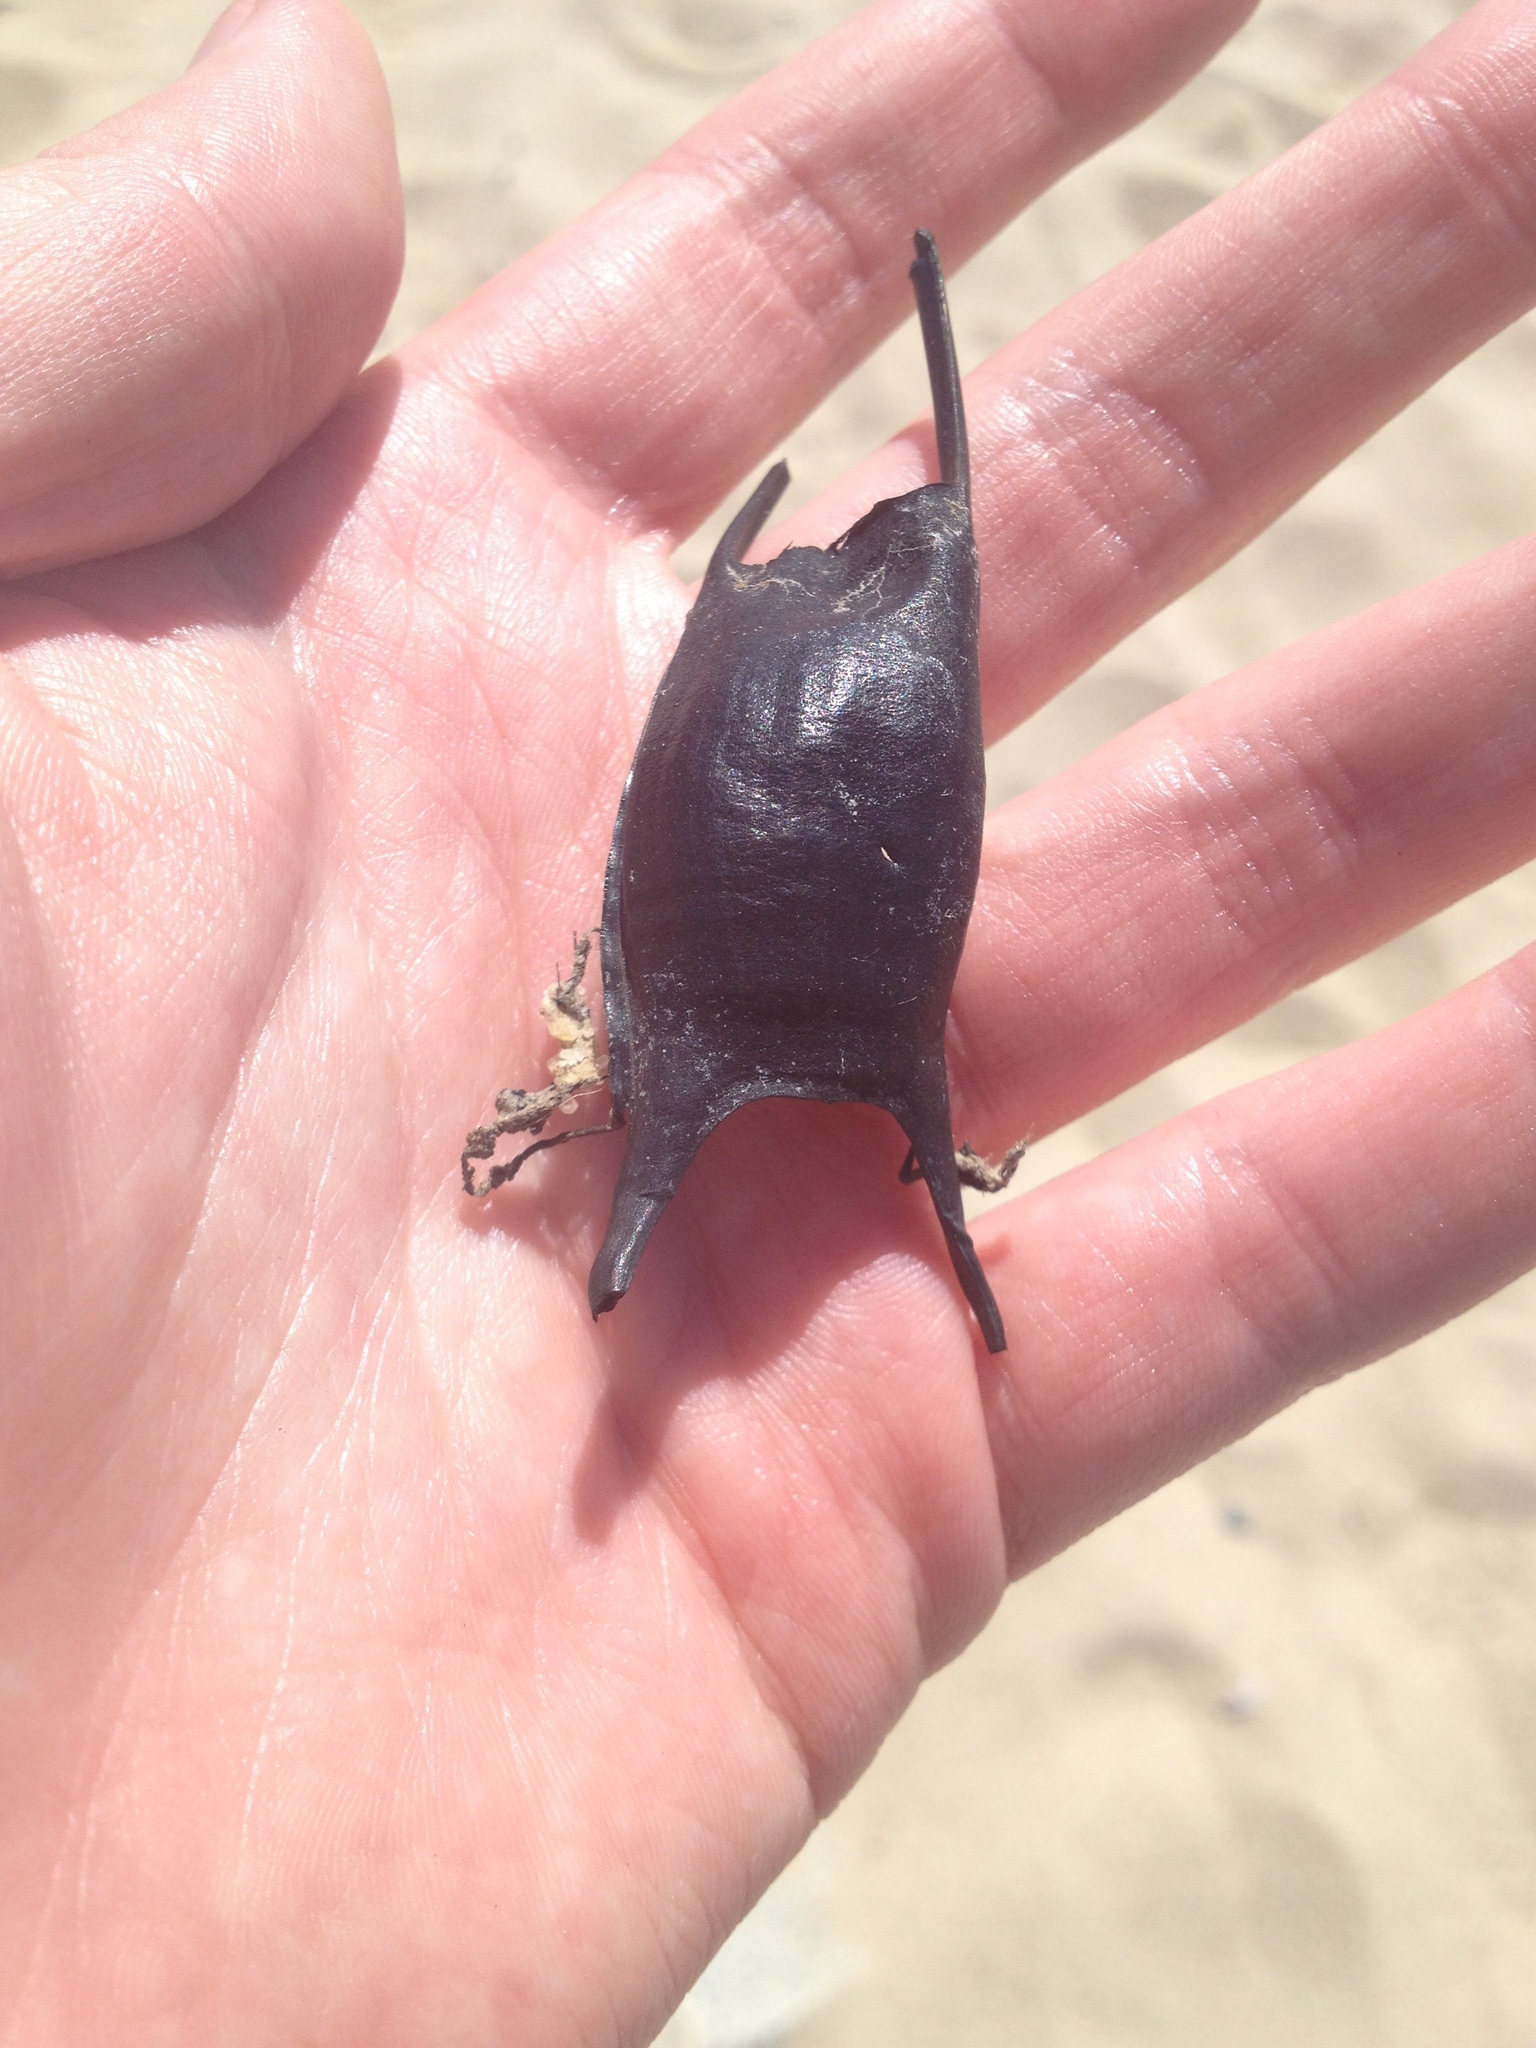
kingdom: Animalia
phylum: Chordata
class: Elasmobranchii
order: Rajiformes
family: Rajidae
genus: Leucoraja
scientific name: Leucoraja garmani
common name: Rosette skate
